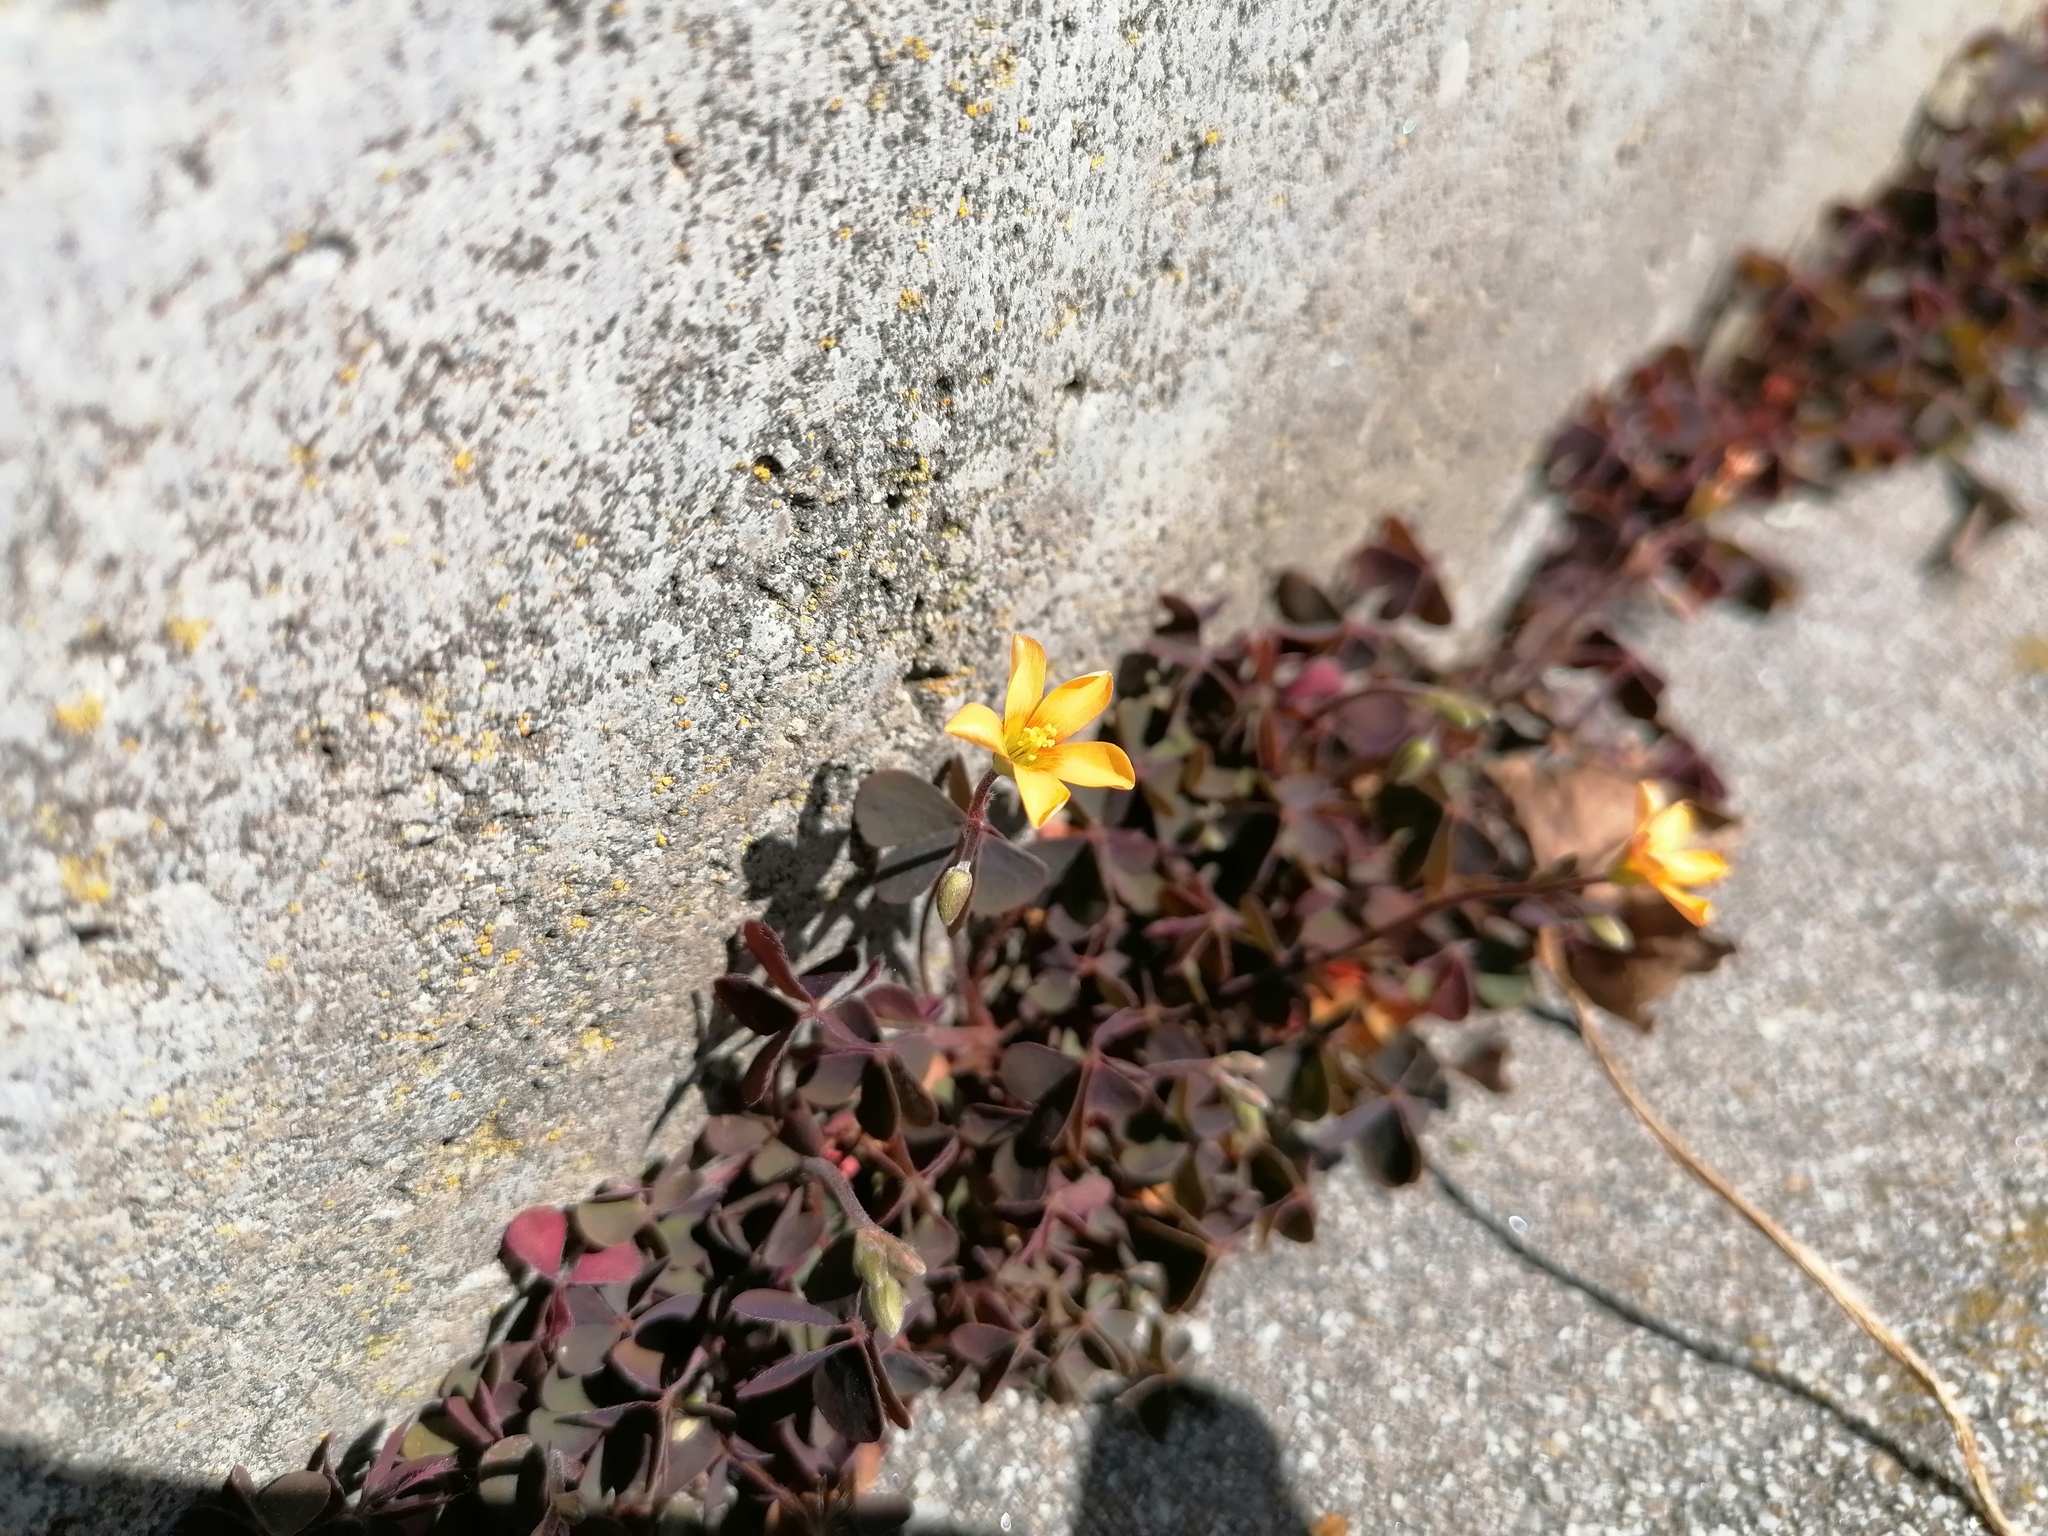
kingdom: Plantae
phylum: Tracheophyta
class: Magnoliopsida
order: Oxalidales
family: Oxalidaceae
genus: Oxalis
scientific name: Oxalis corniculata
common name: Procumbent yellow-sorrel
